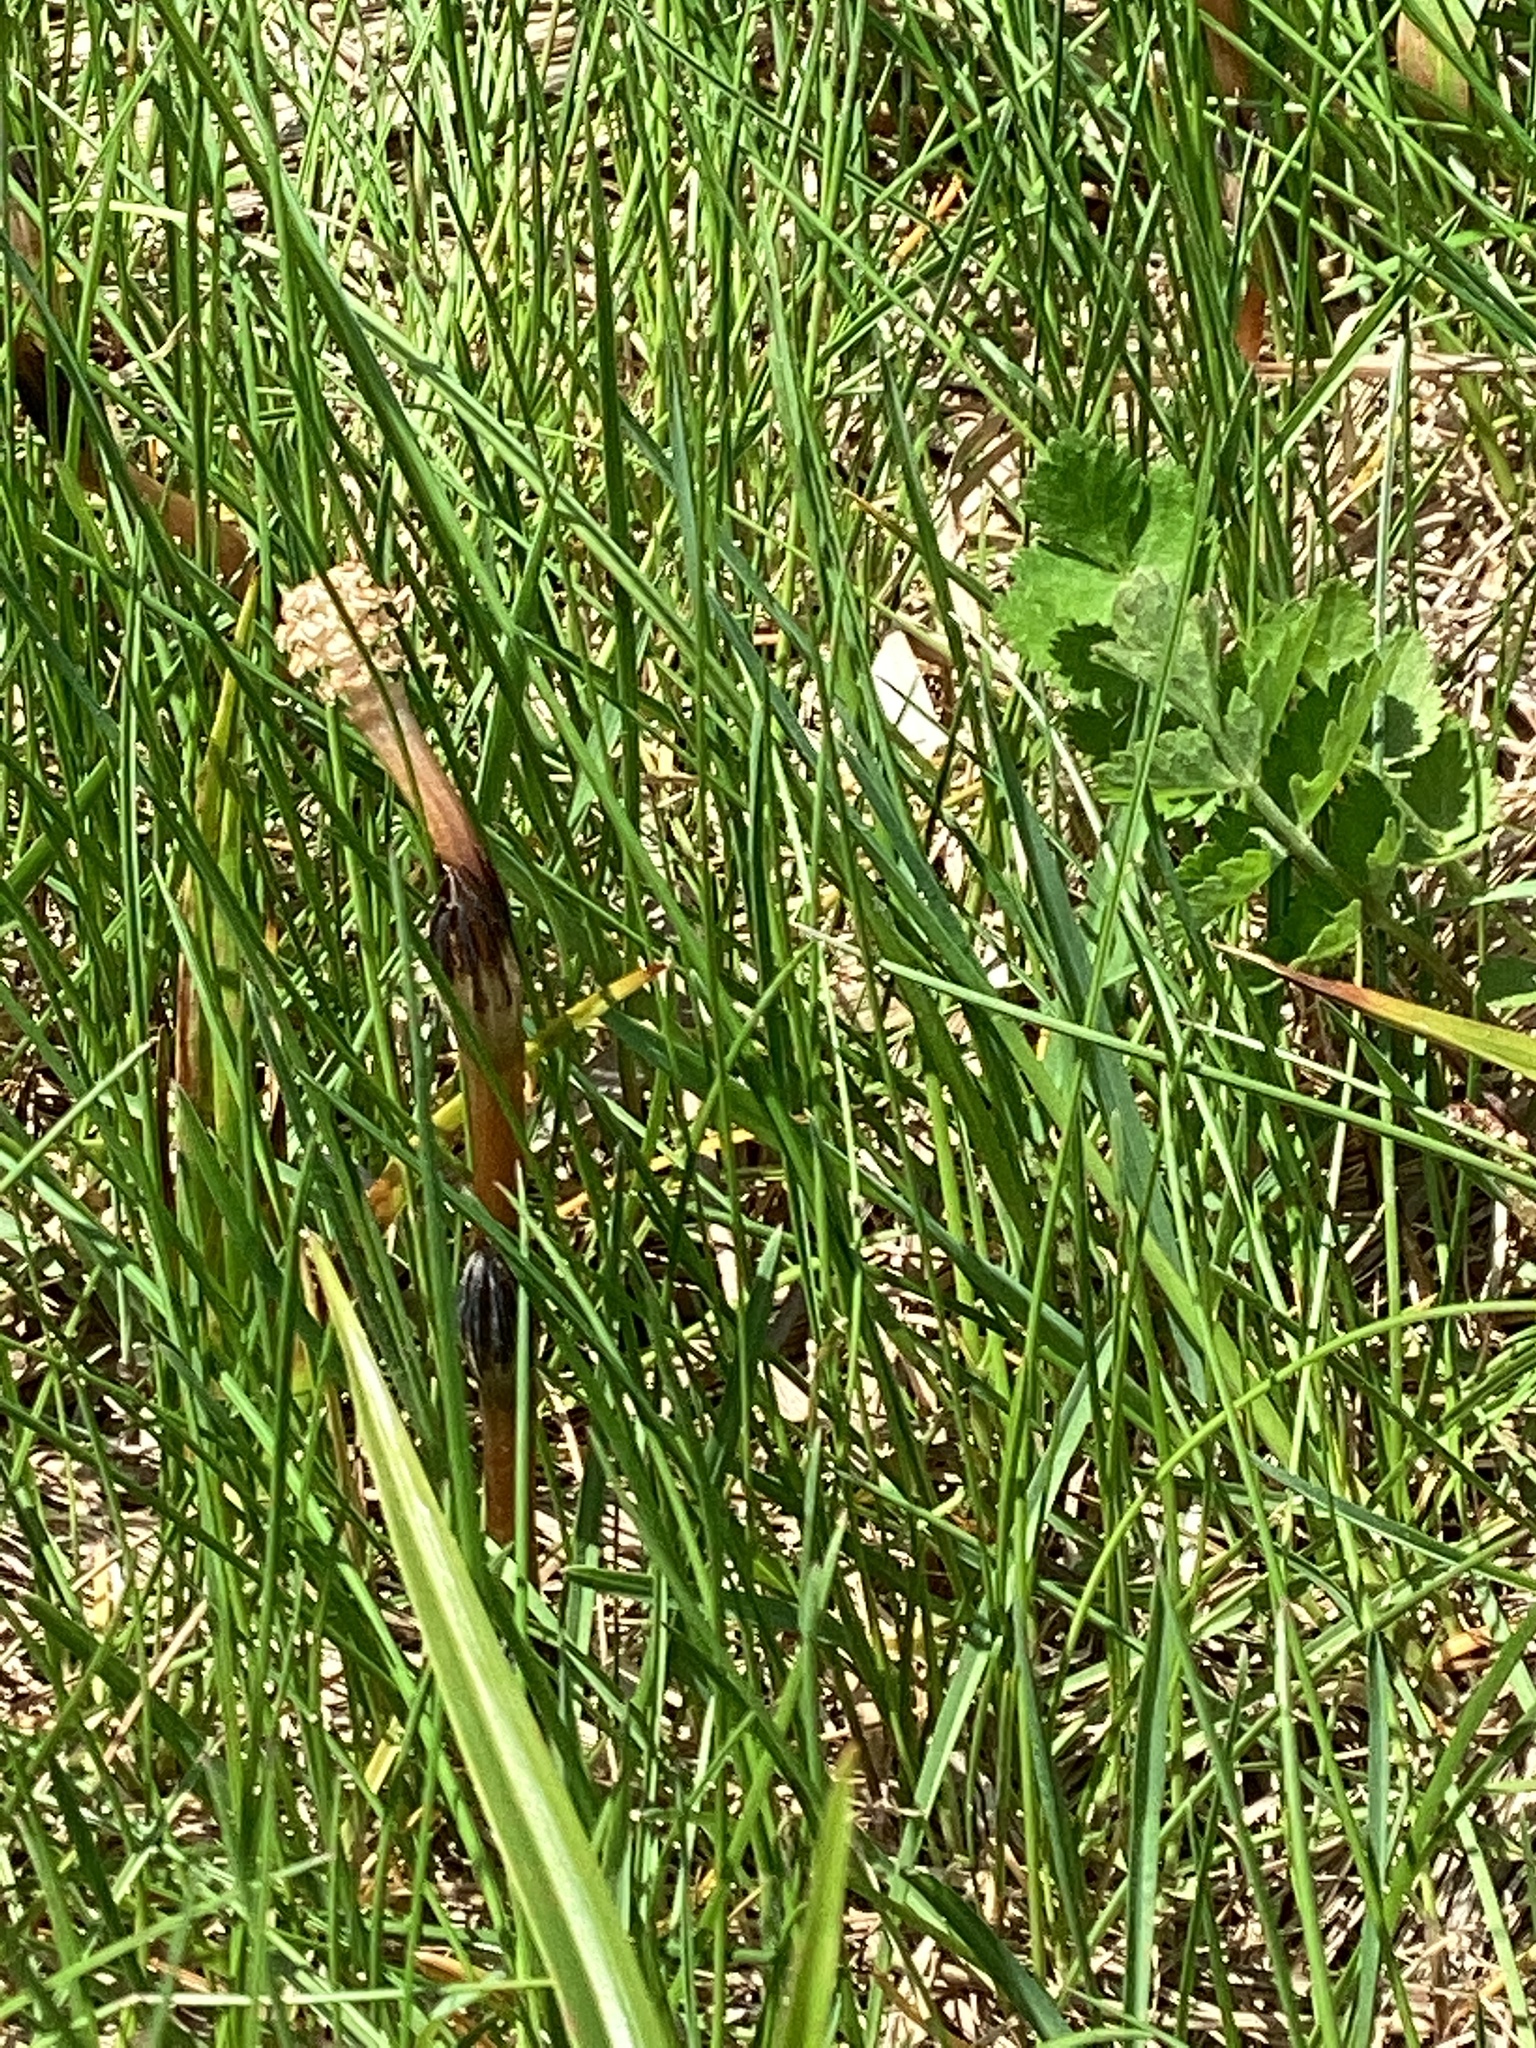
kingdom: Plantae
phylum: Tracheophyta
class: Polypodiopsida
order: Equisetales
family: Equisetaceae
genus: Equisetum
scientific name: Equisetum arvense
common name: Field horsetail
